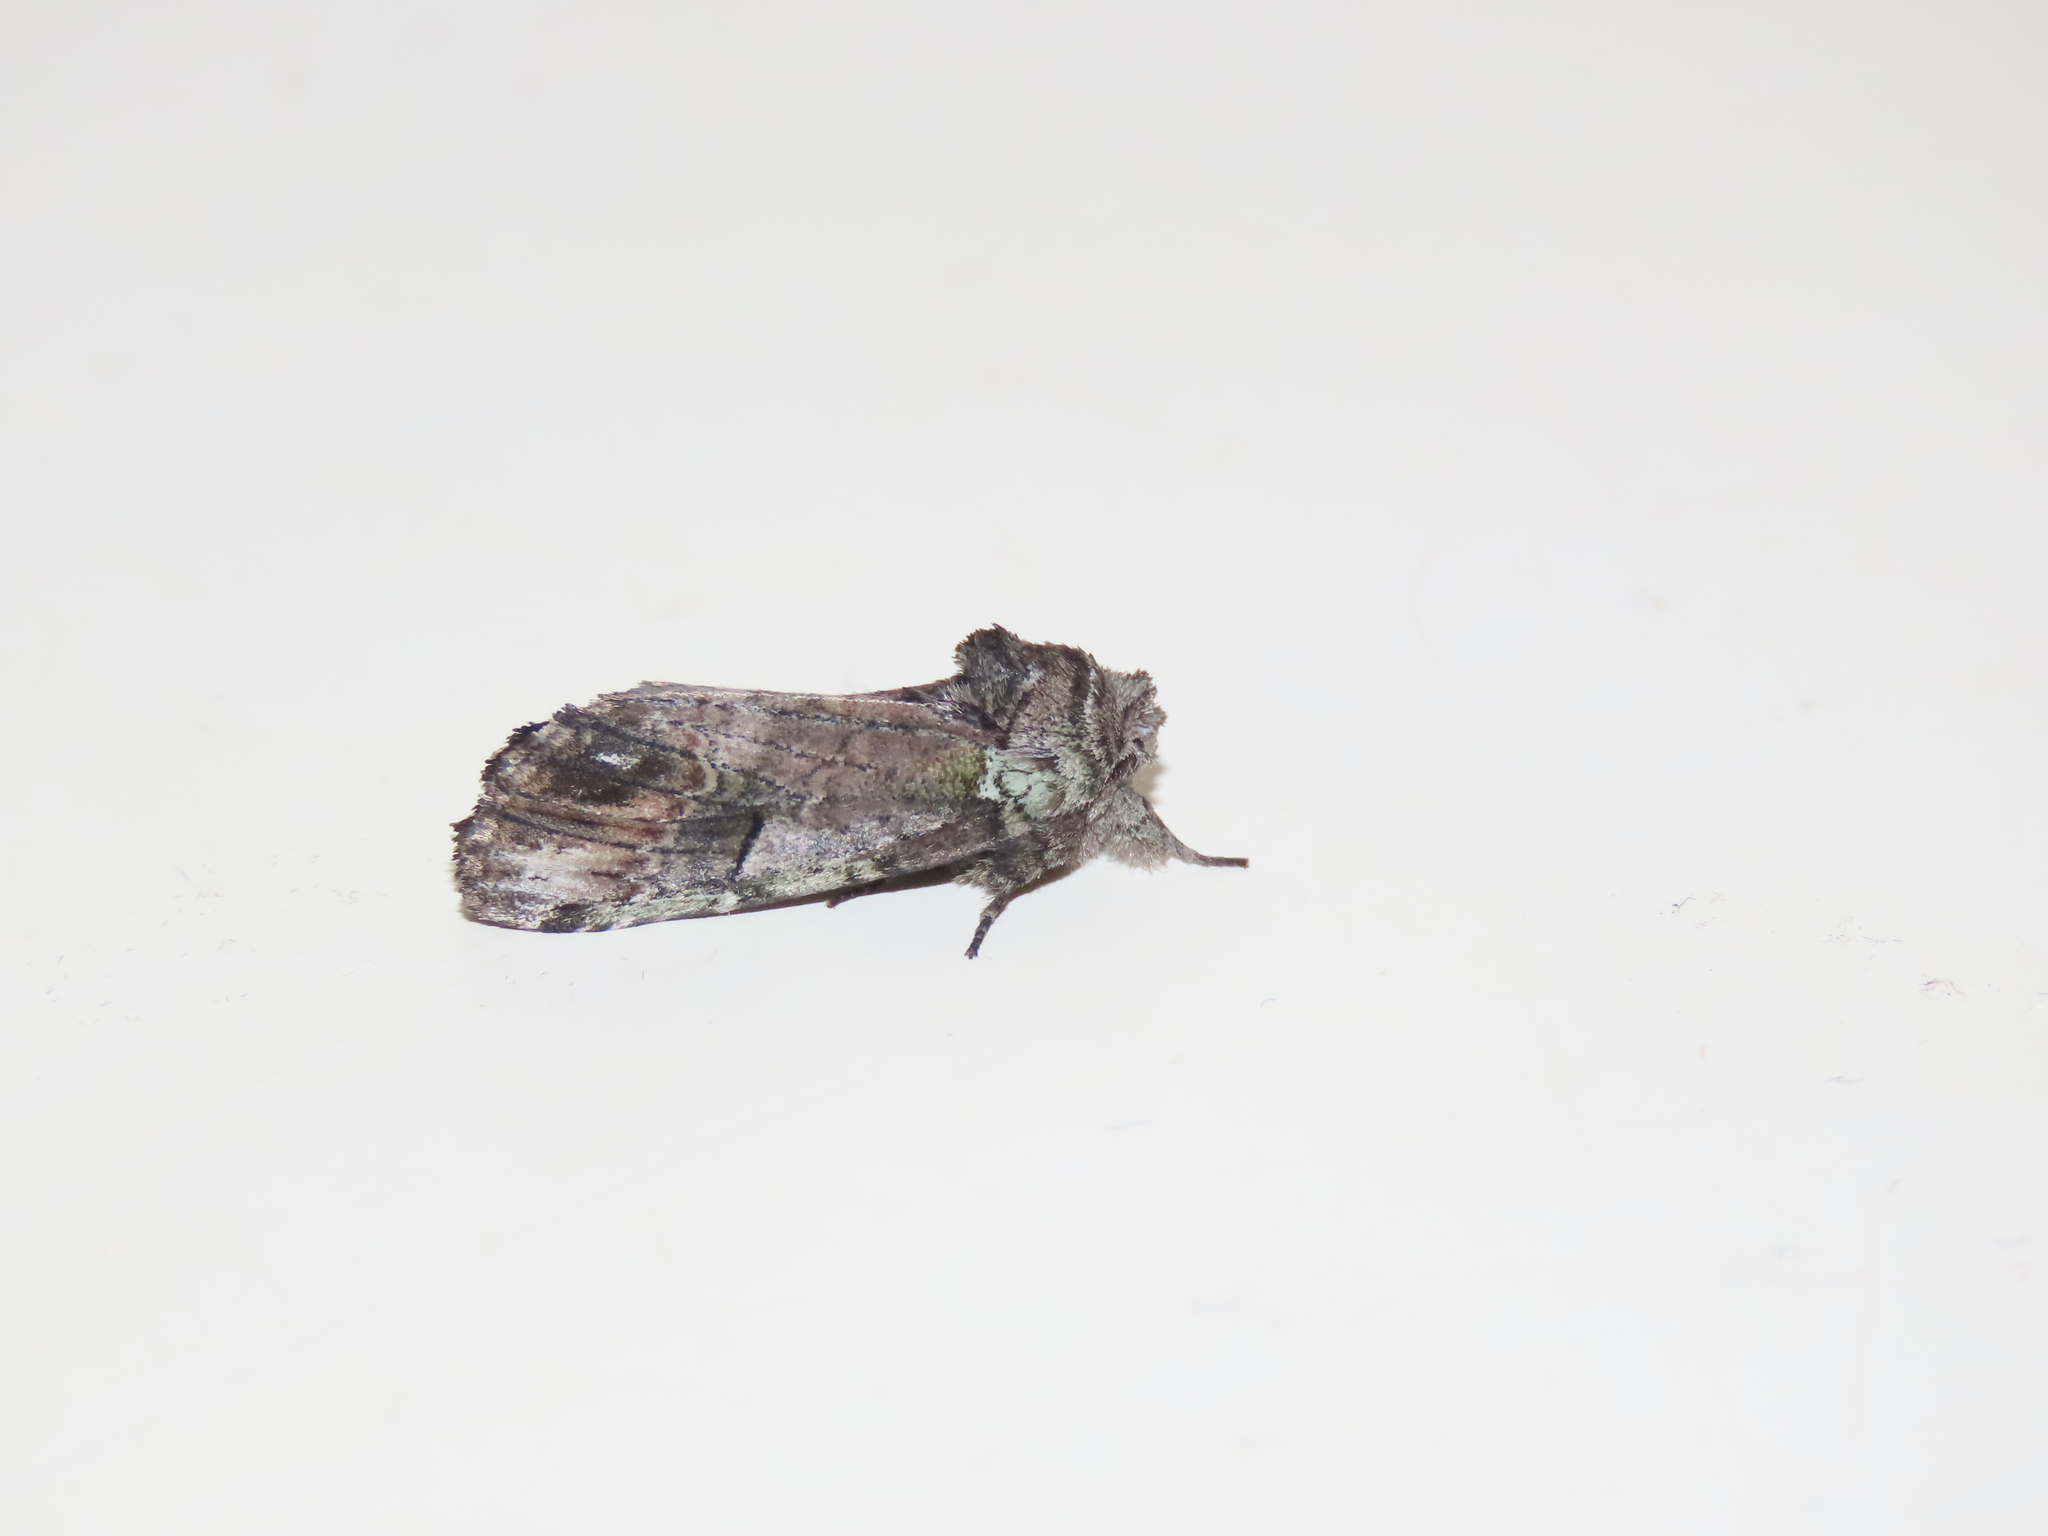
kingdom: Animalia
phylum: Arthropoda
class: Insecta
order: Lepidoptera
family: Notodontidae
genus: Schizura
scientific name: Schizura
